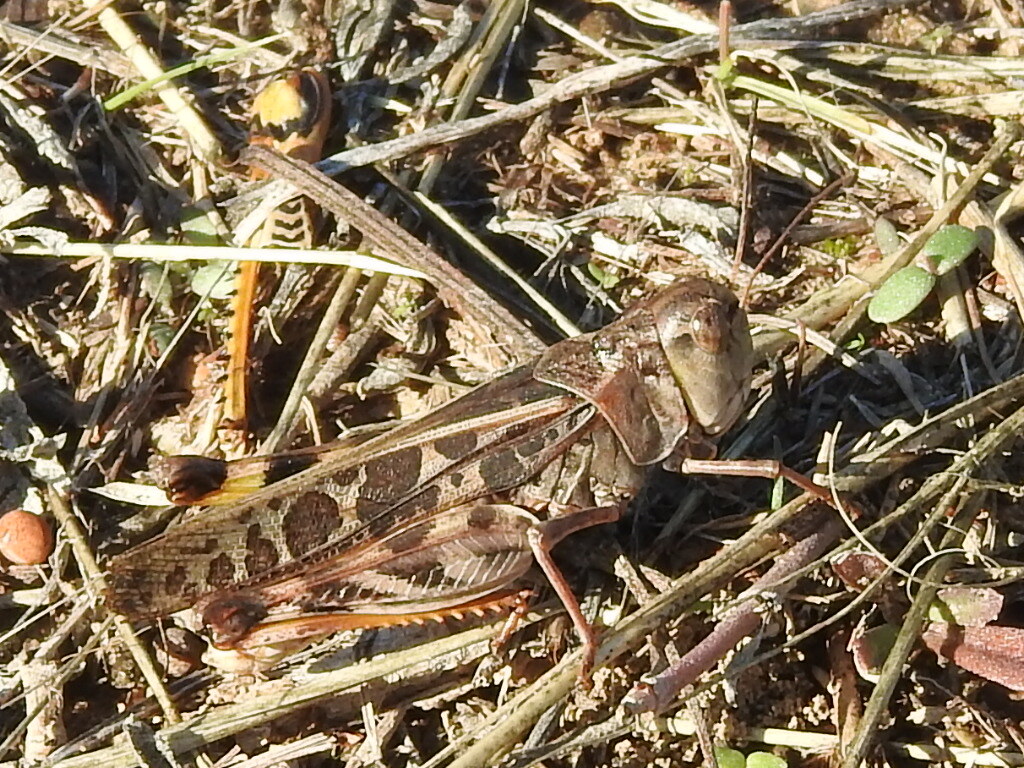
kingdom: Animalia
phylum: Arthropoda
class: Insecta
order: Orthoptera
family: Acrididae
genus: Hippiscus
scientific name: Hippiscus ocelote
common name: Wrinkled grasshopper
